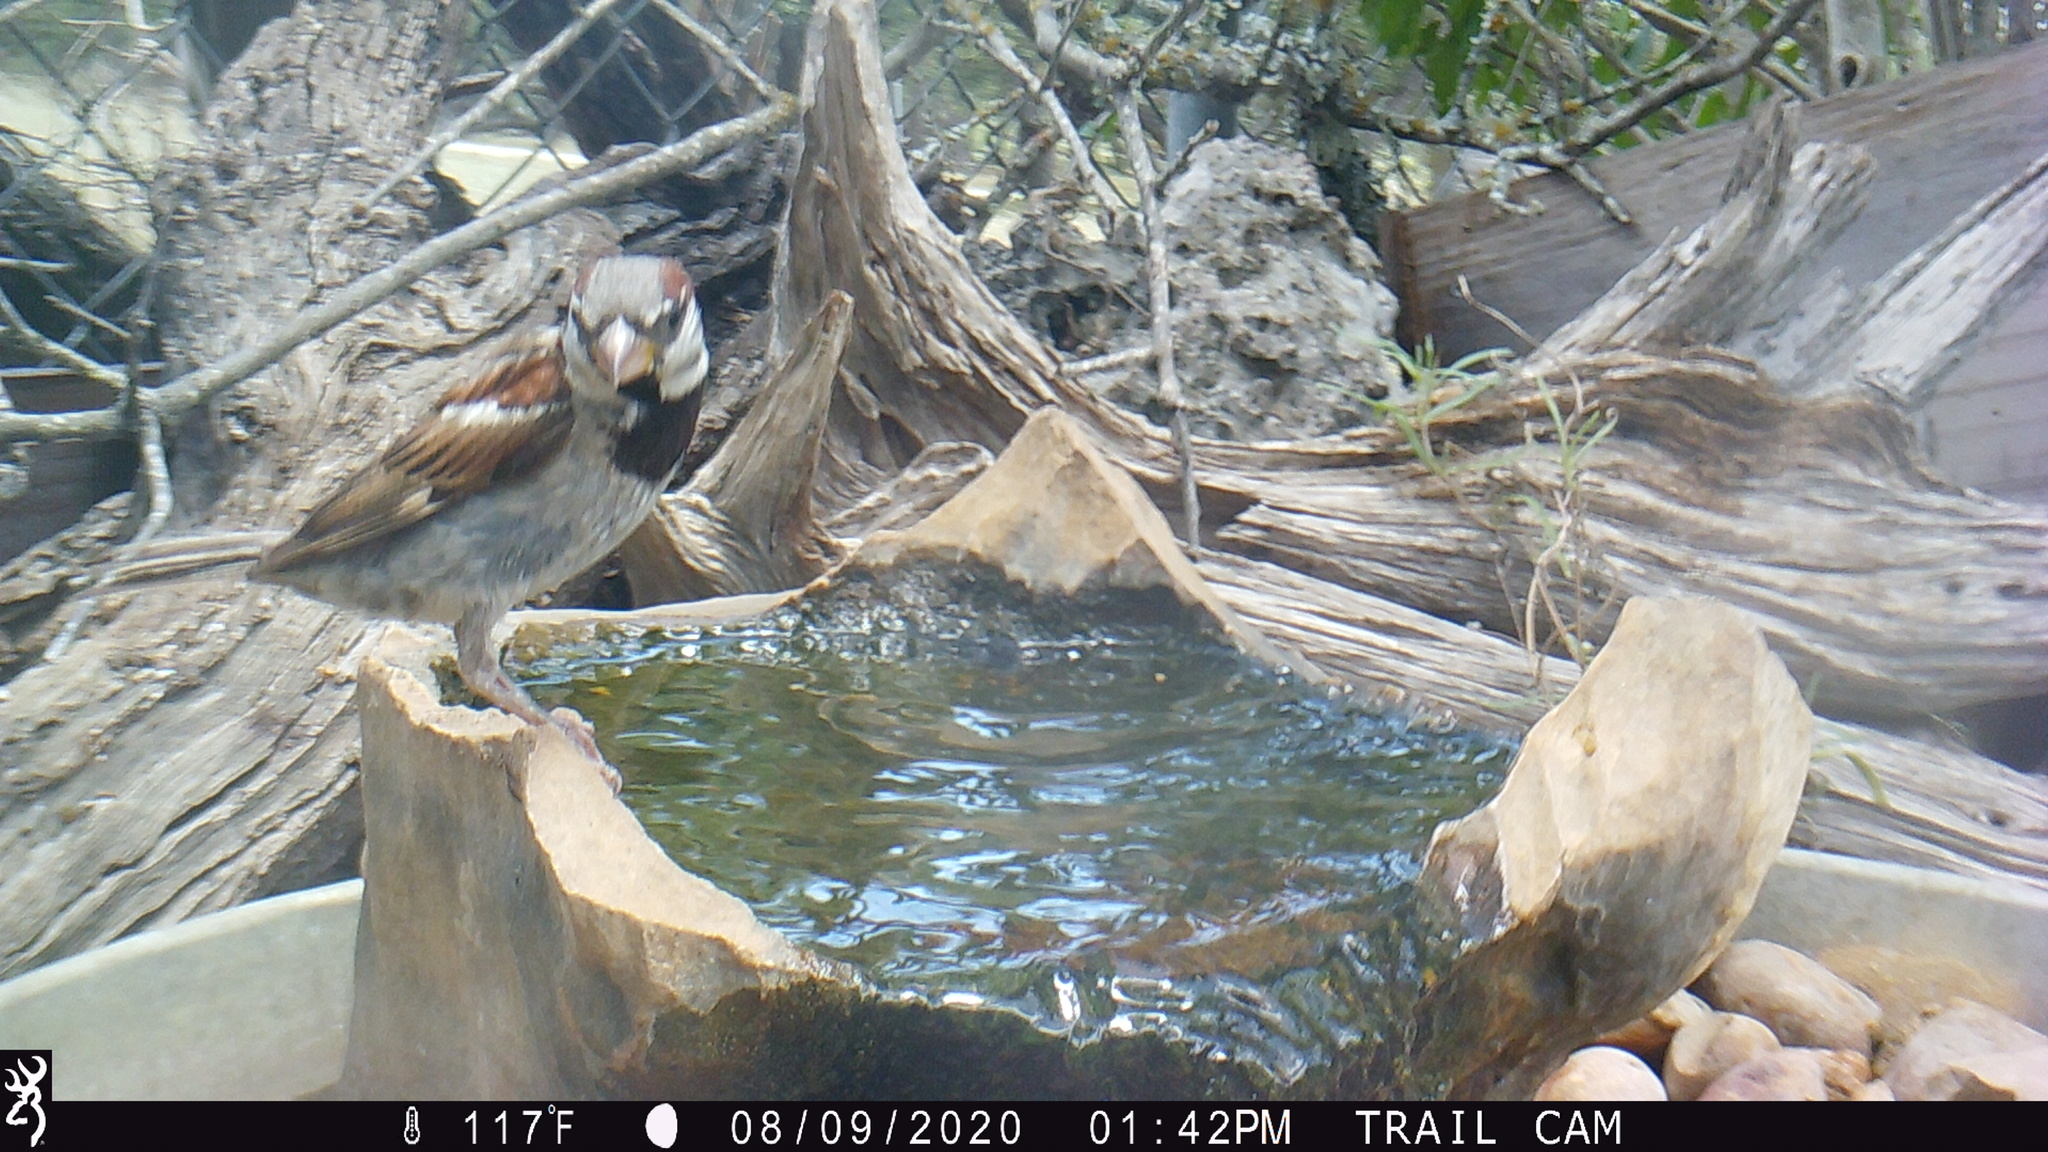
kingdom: Animalia
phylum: Chordata
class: Aves
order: Passeriformes
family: Passeridae
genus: Passer
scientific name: Passer domesticus
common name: House sparrow
